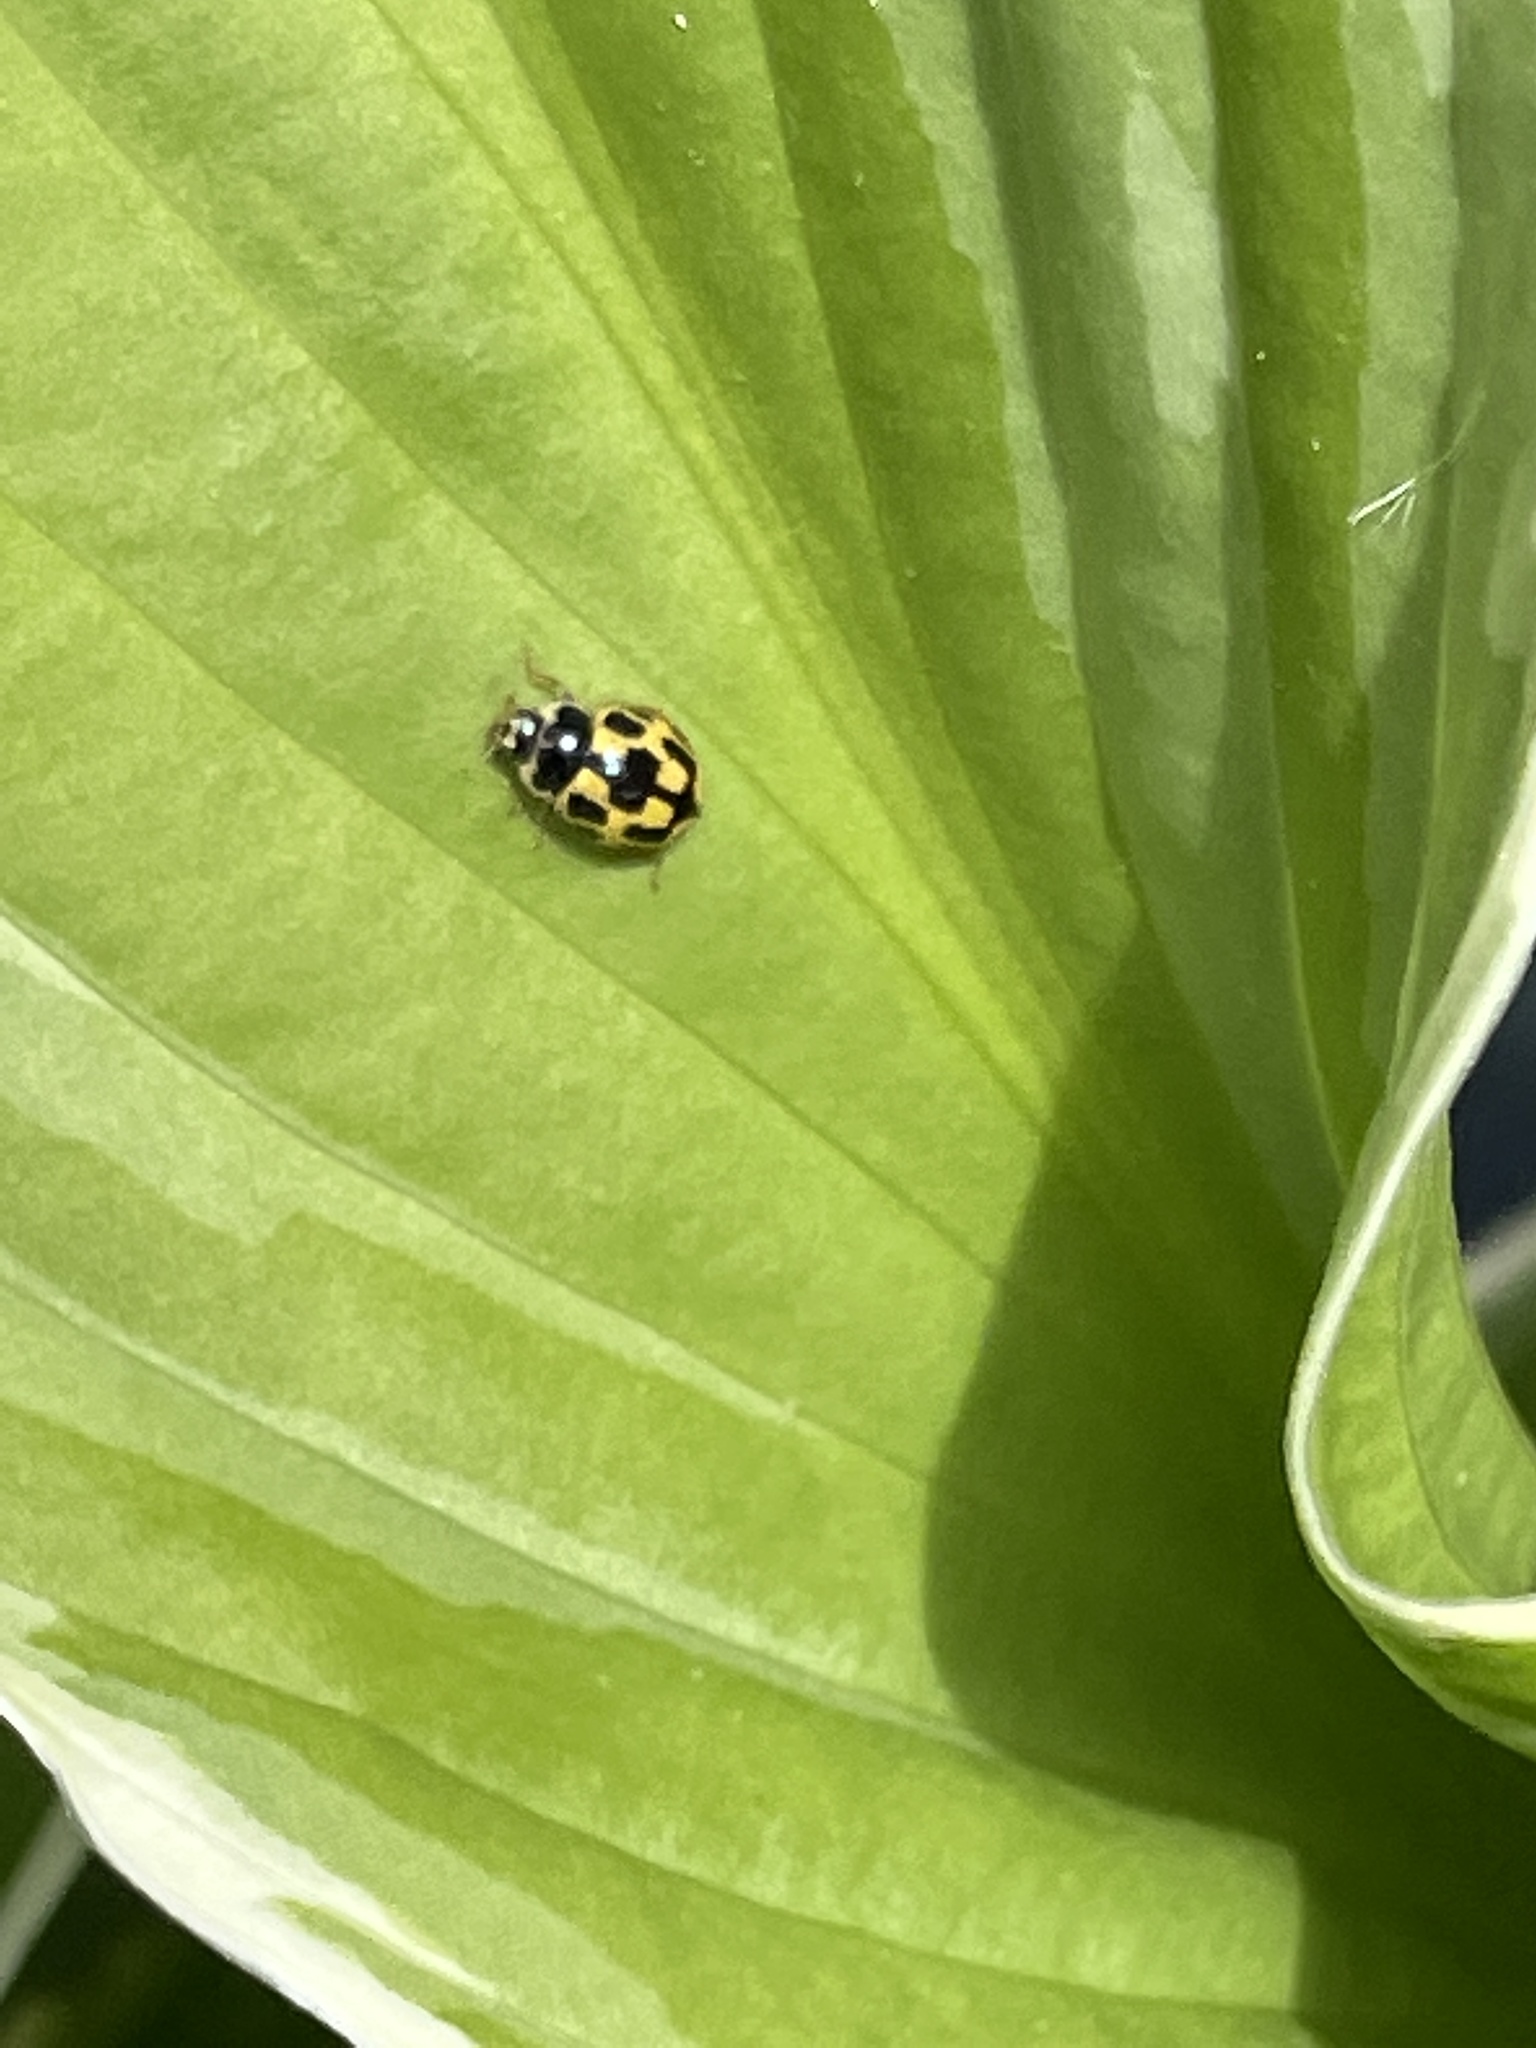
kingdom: Animalia
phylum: Arthropoda
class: Insecta
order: Coleoptera
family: Coccinellidae
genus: Propylaea
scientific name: Propylaea quatuordecimpunctata
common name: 14-spotted ladybird beetle
